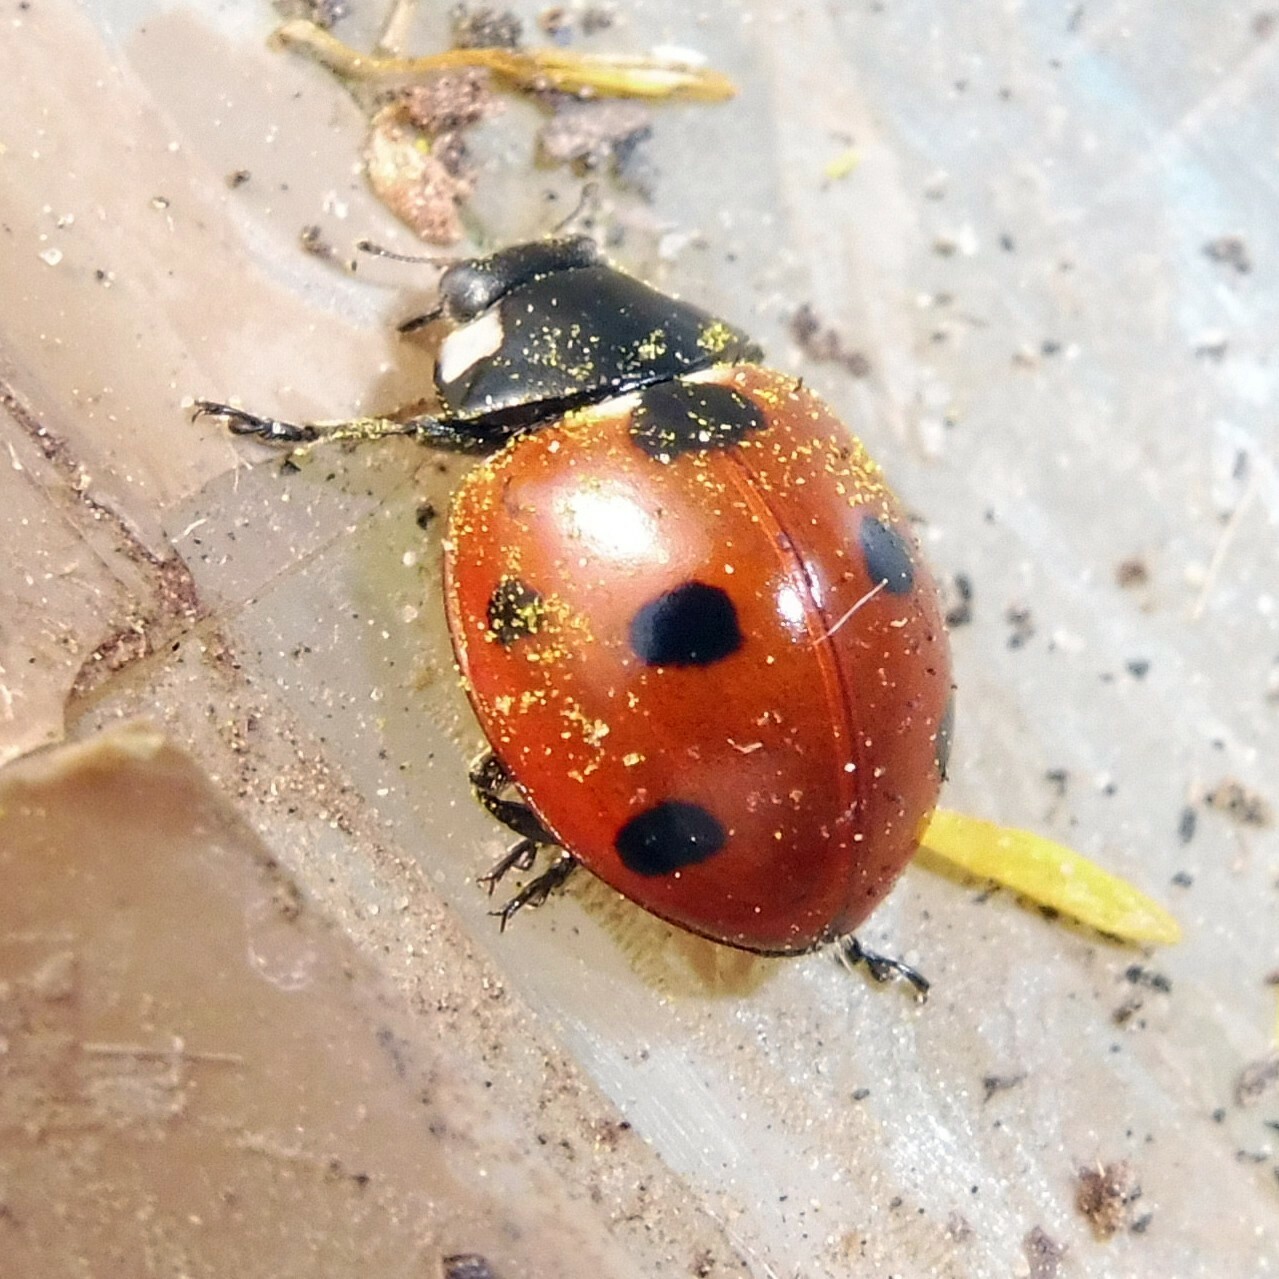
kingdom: Animalia
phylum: Arthropoda
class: Insecta
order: Coleoptera
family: Coccinellidae
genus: Coccinella
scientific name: Coccinella septempunctata
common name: Sevenspotted lady beetle
